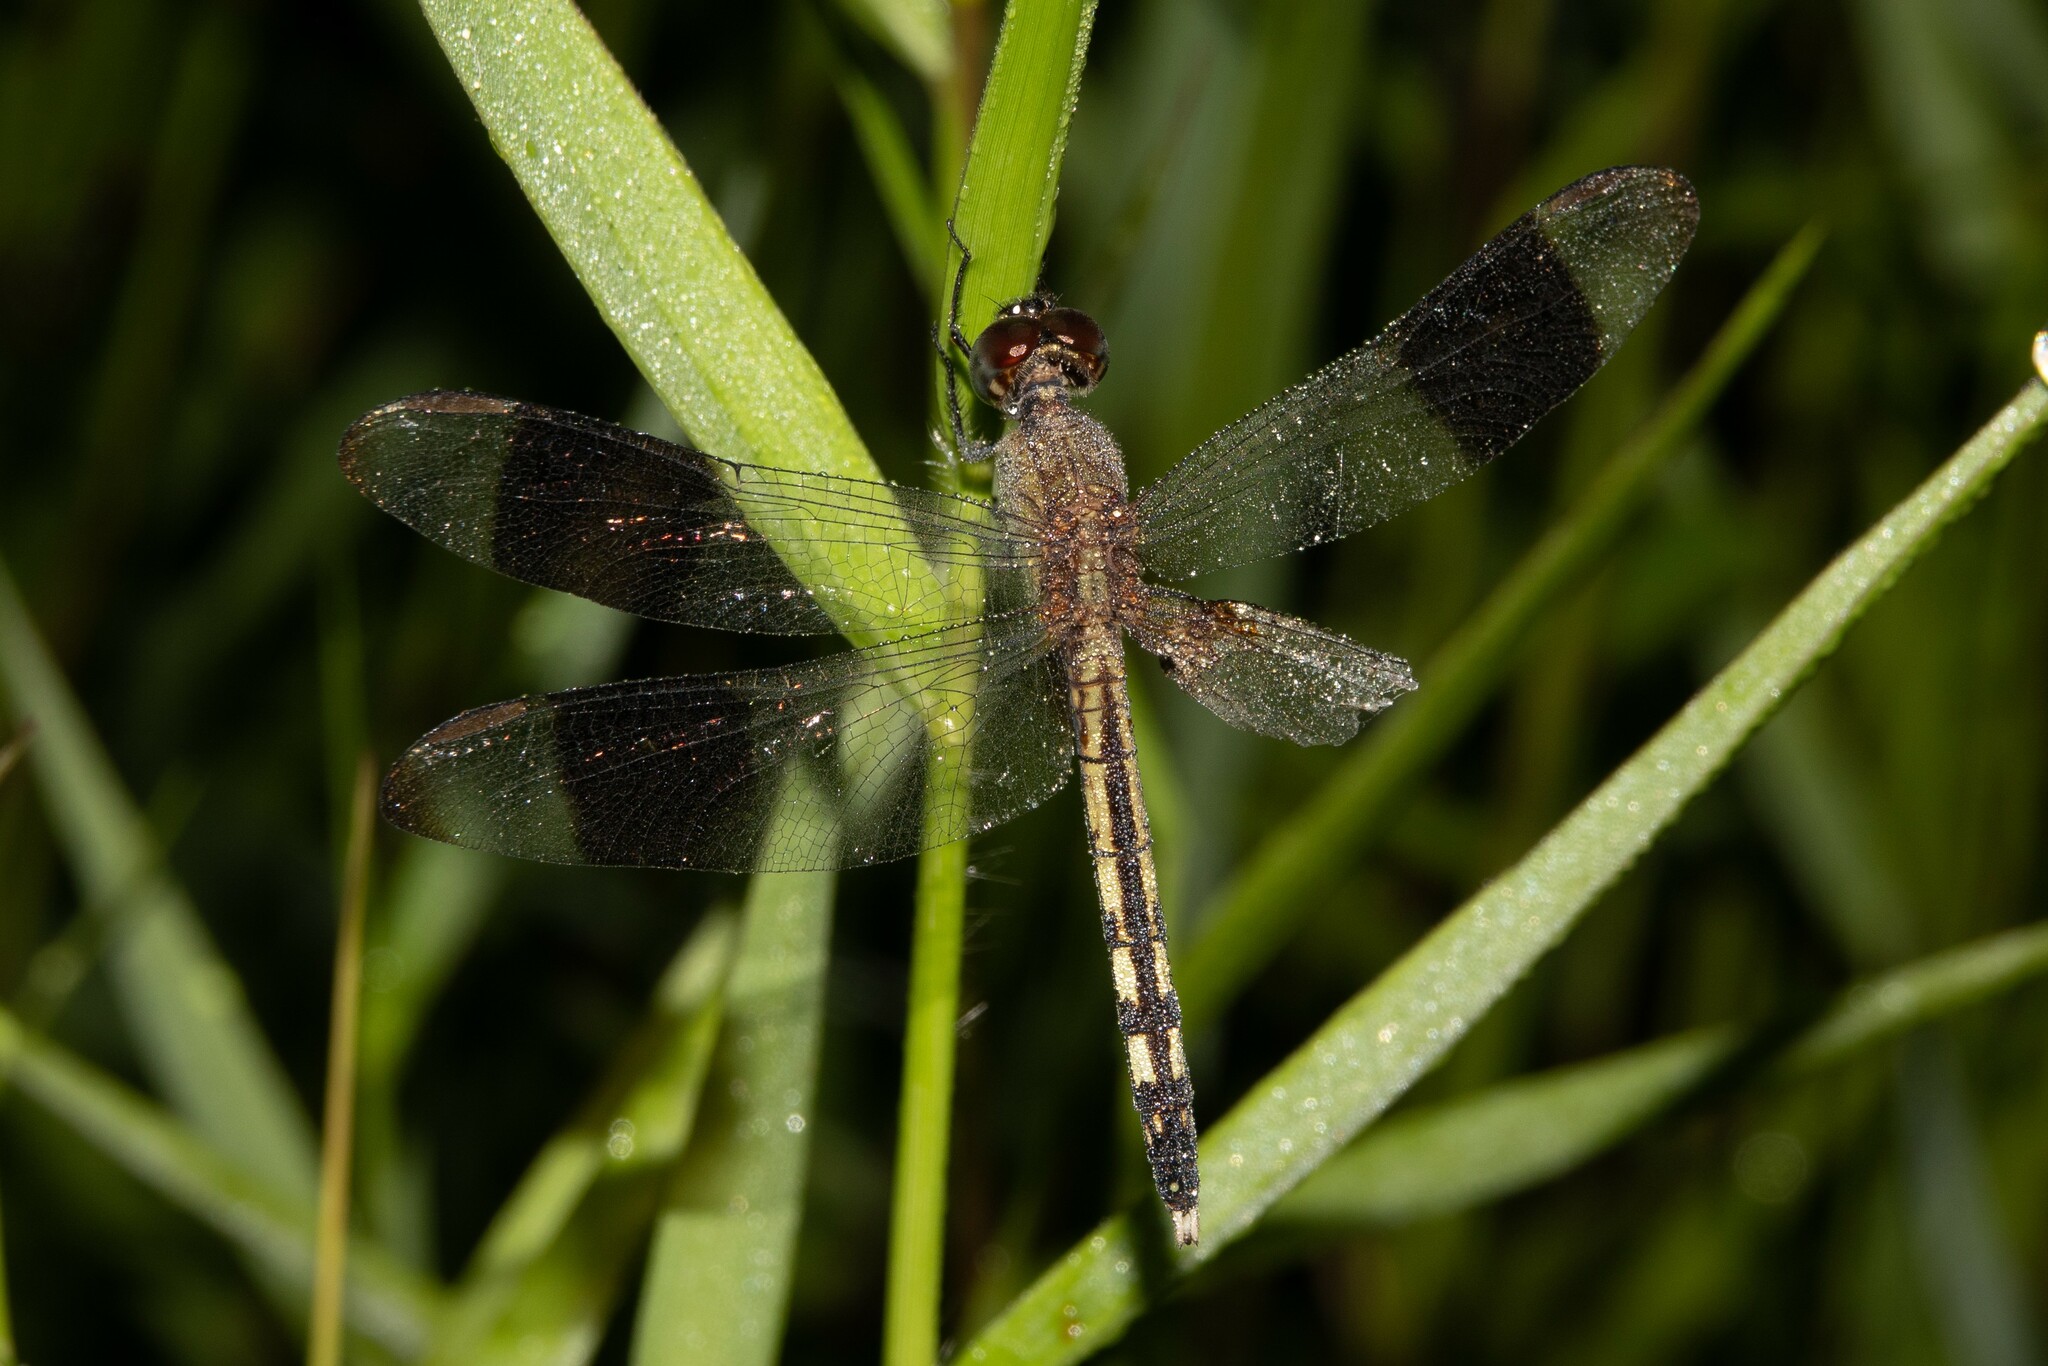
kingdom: Animalia
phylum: Arthropoda
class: Insecta
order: Odonata
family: Libellulidae
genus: Erythrodiplax
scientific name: Erythrodiplax umbrata
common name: Band-winged dragonlet
